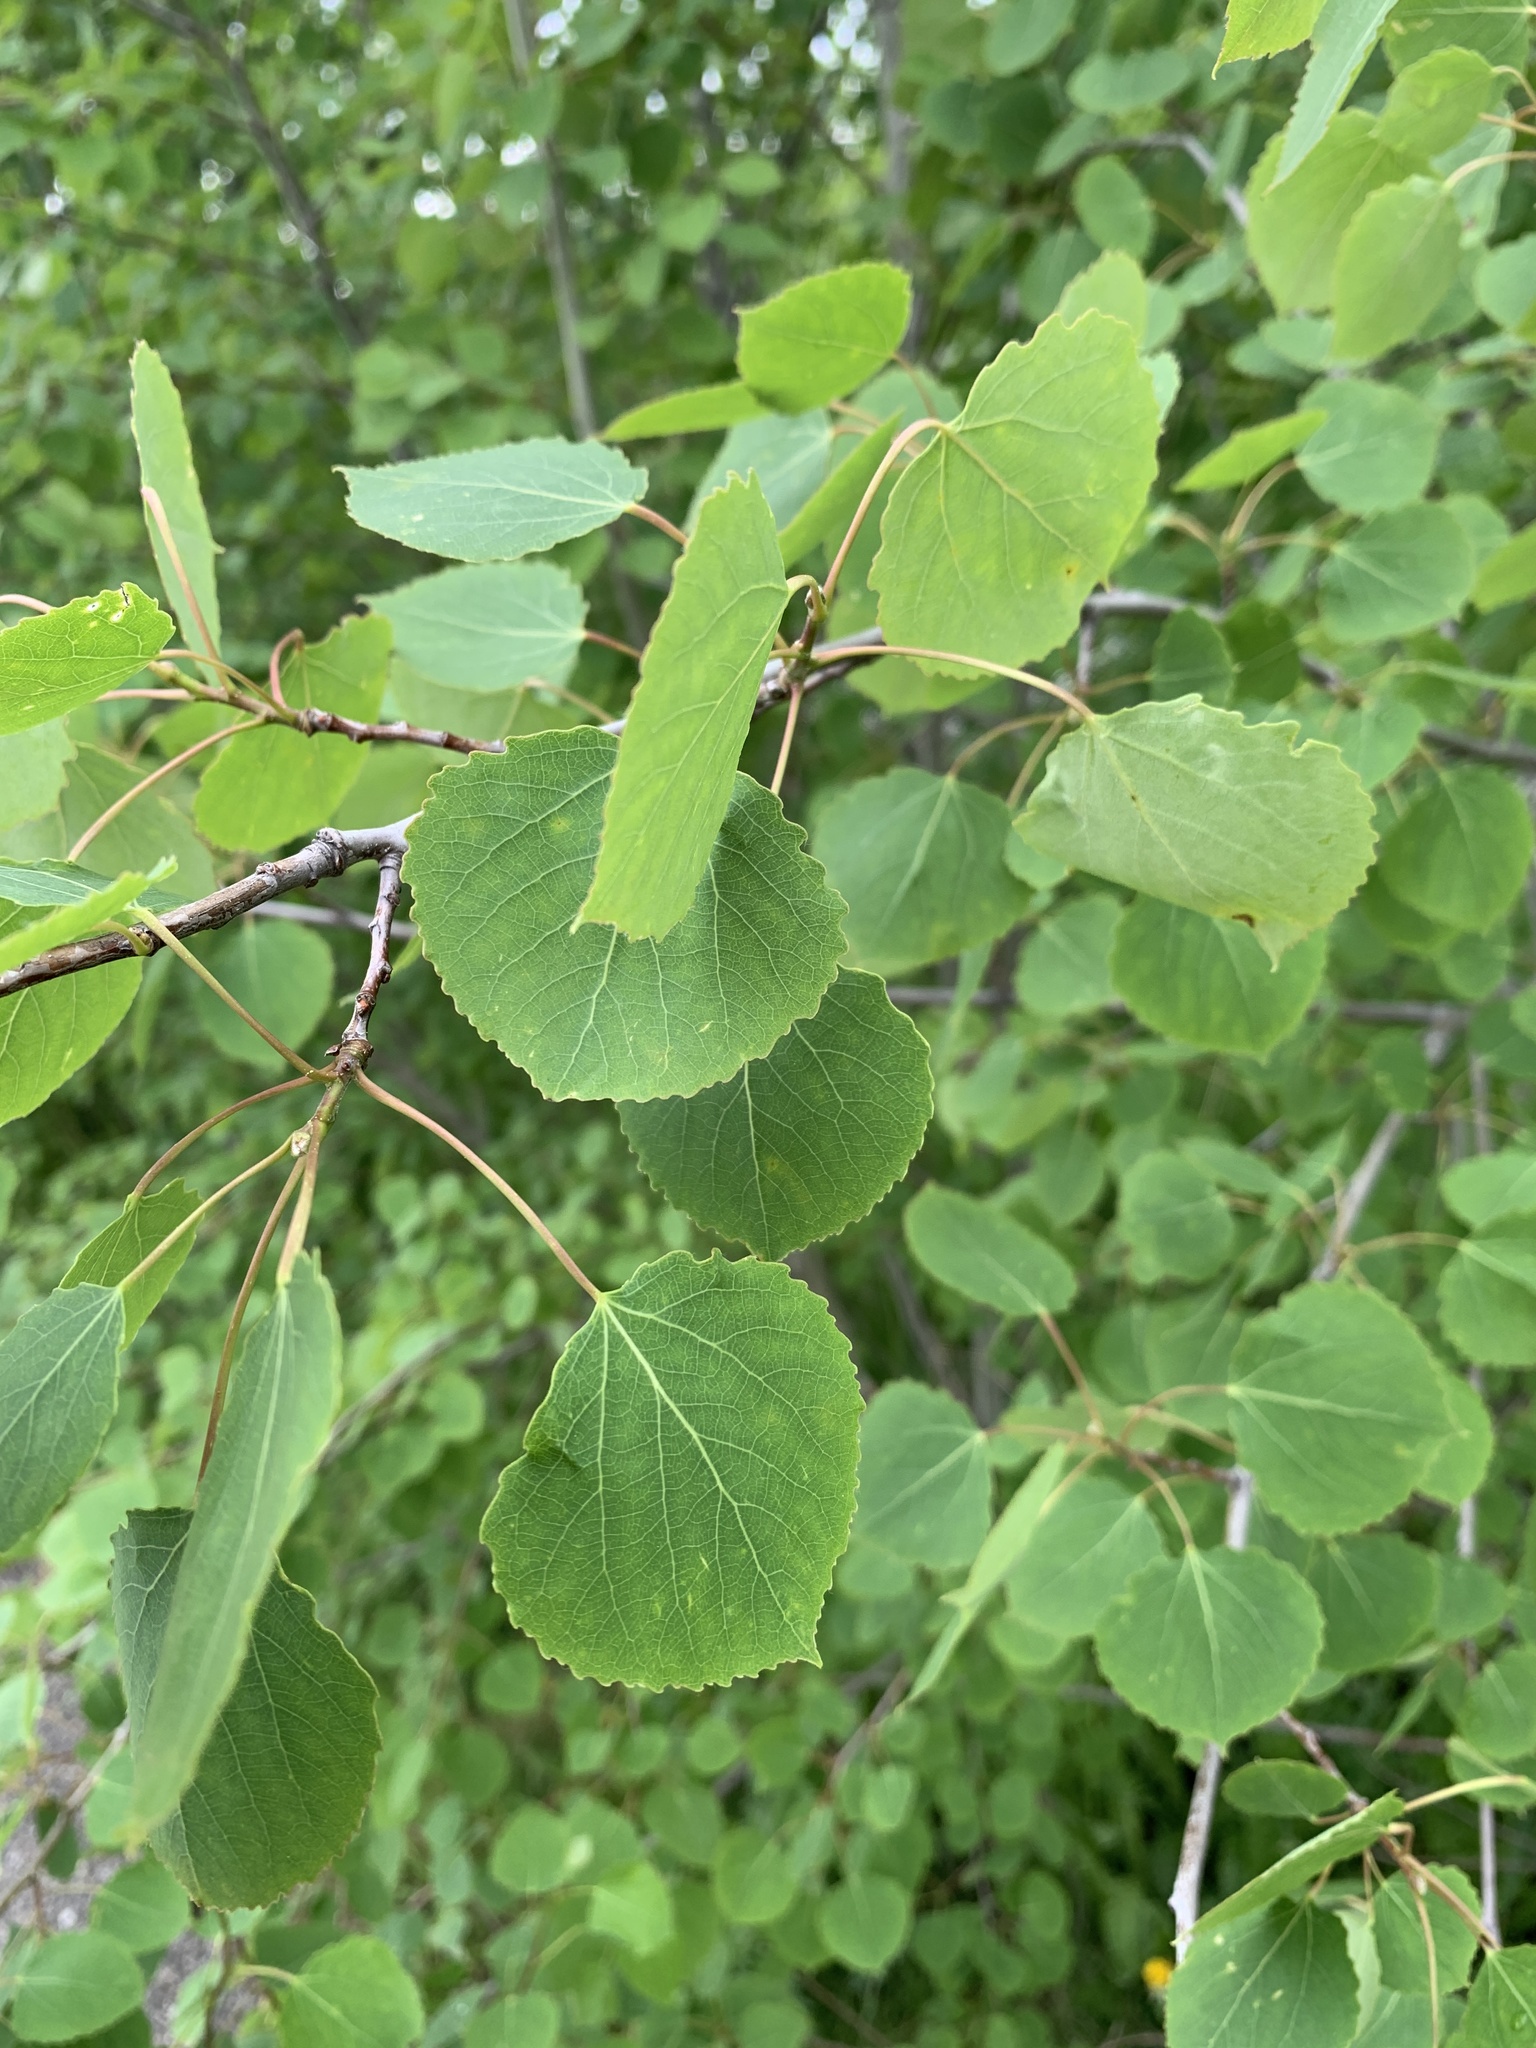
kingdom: Plantae
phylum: Tracheophyta
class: Magnoliopsida
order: Malpighiales
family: Salicaceae
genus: Populus
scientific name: Populus tremuloides
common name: Quaking aspen
